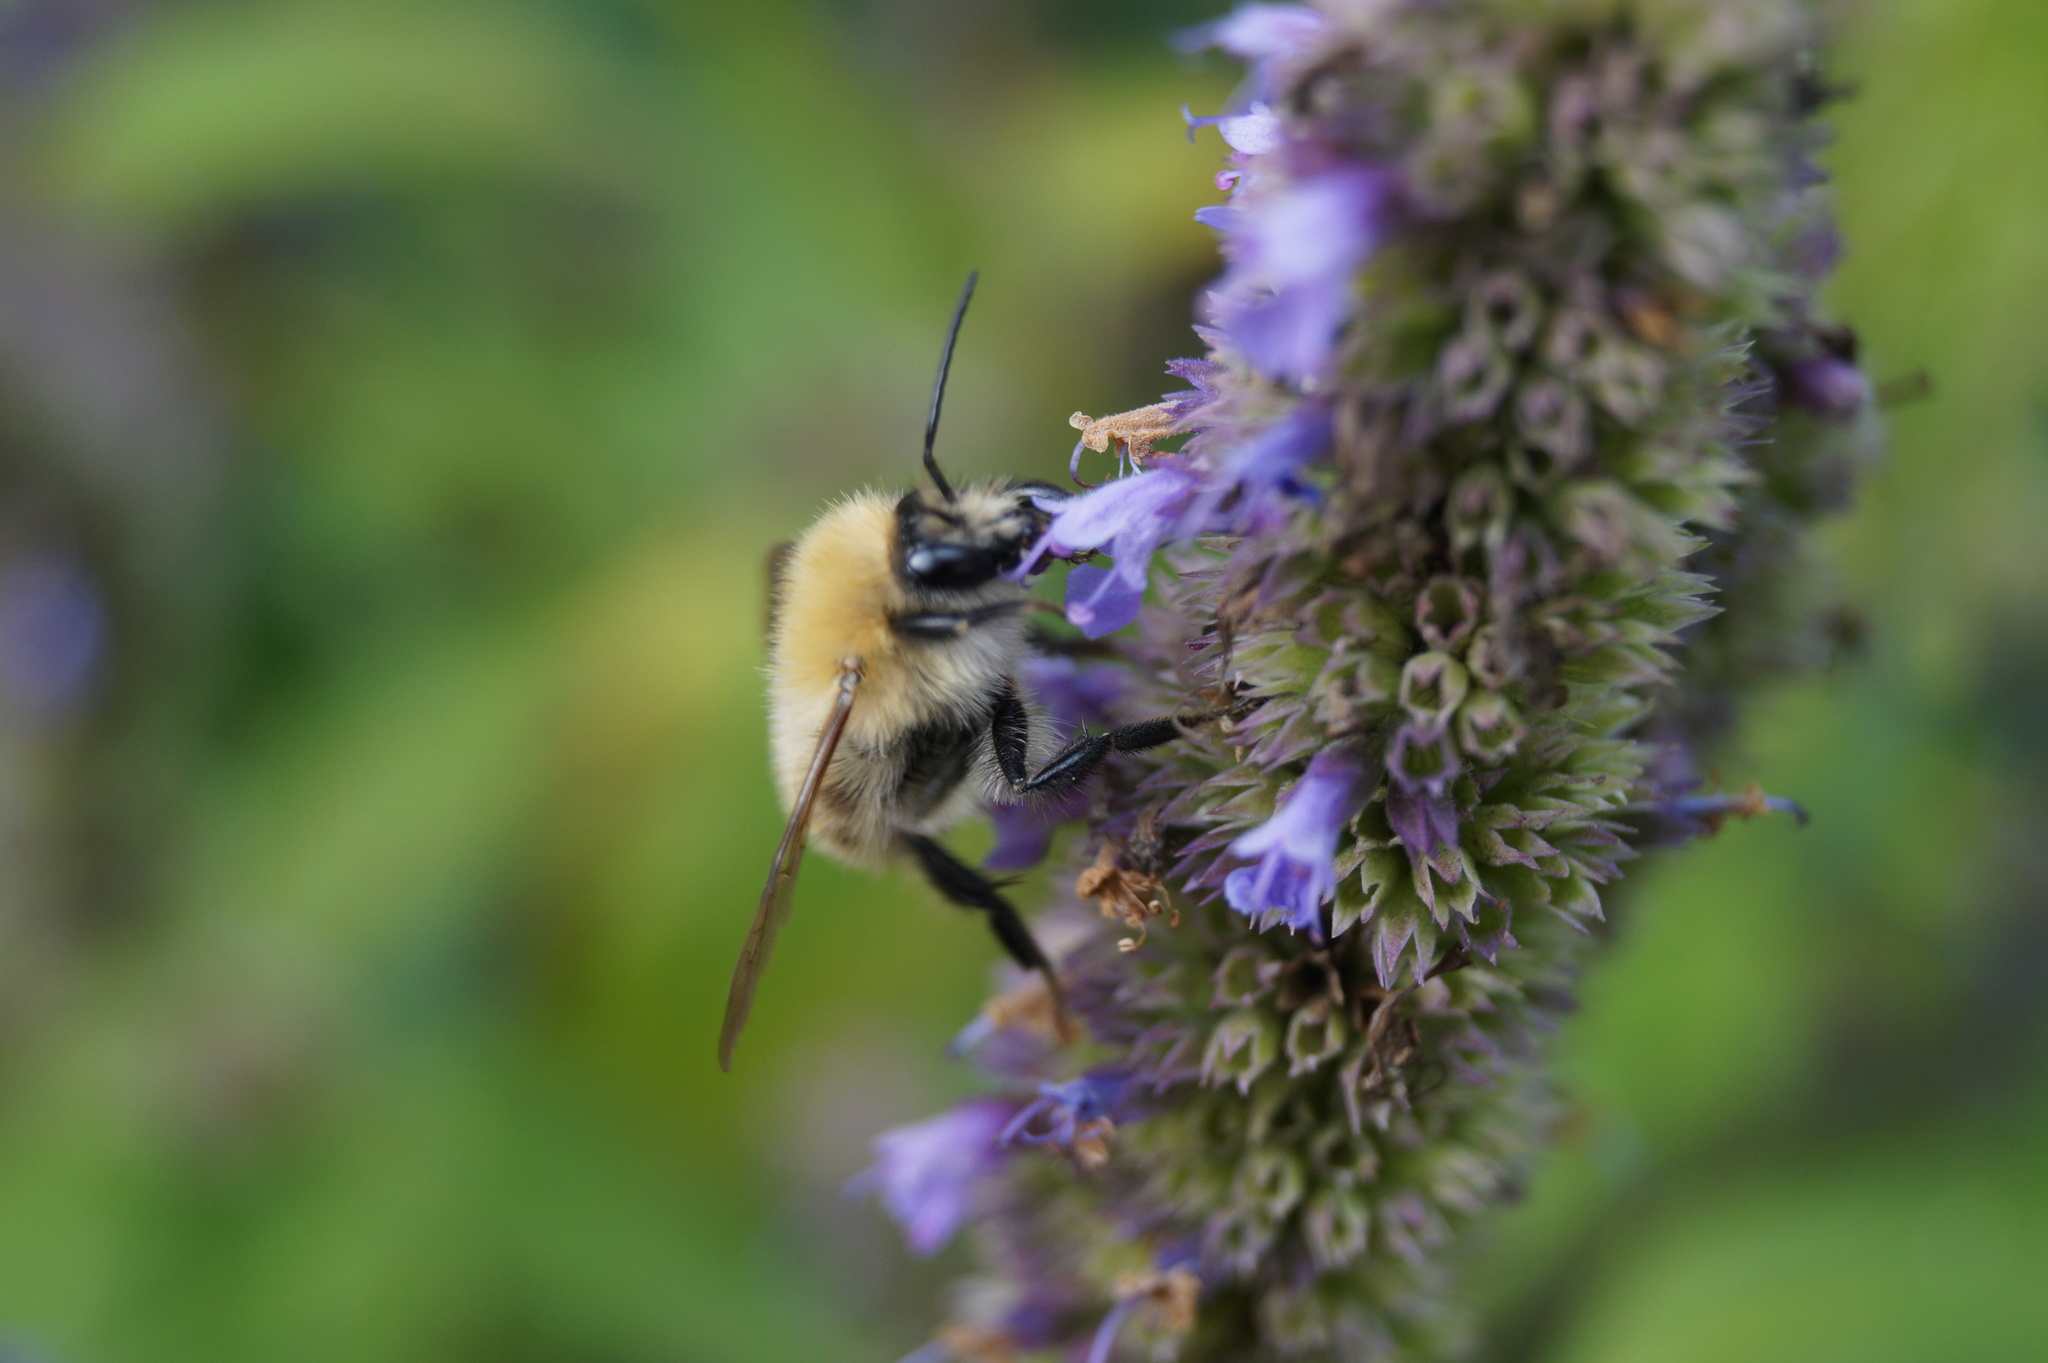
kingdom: Animalia
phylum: Arthropoda
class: Insecta
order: Hymenoptera
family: Apidae
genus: Bombus
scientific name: Bombus pascuorum
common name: Common carder bee
